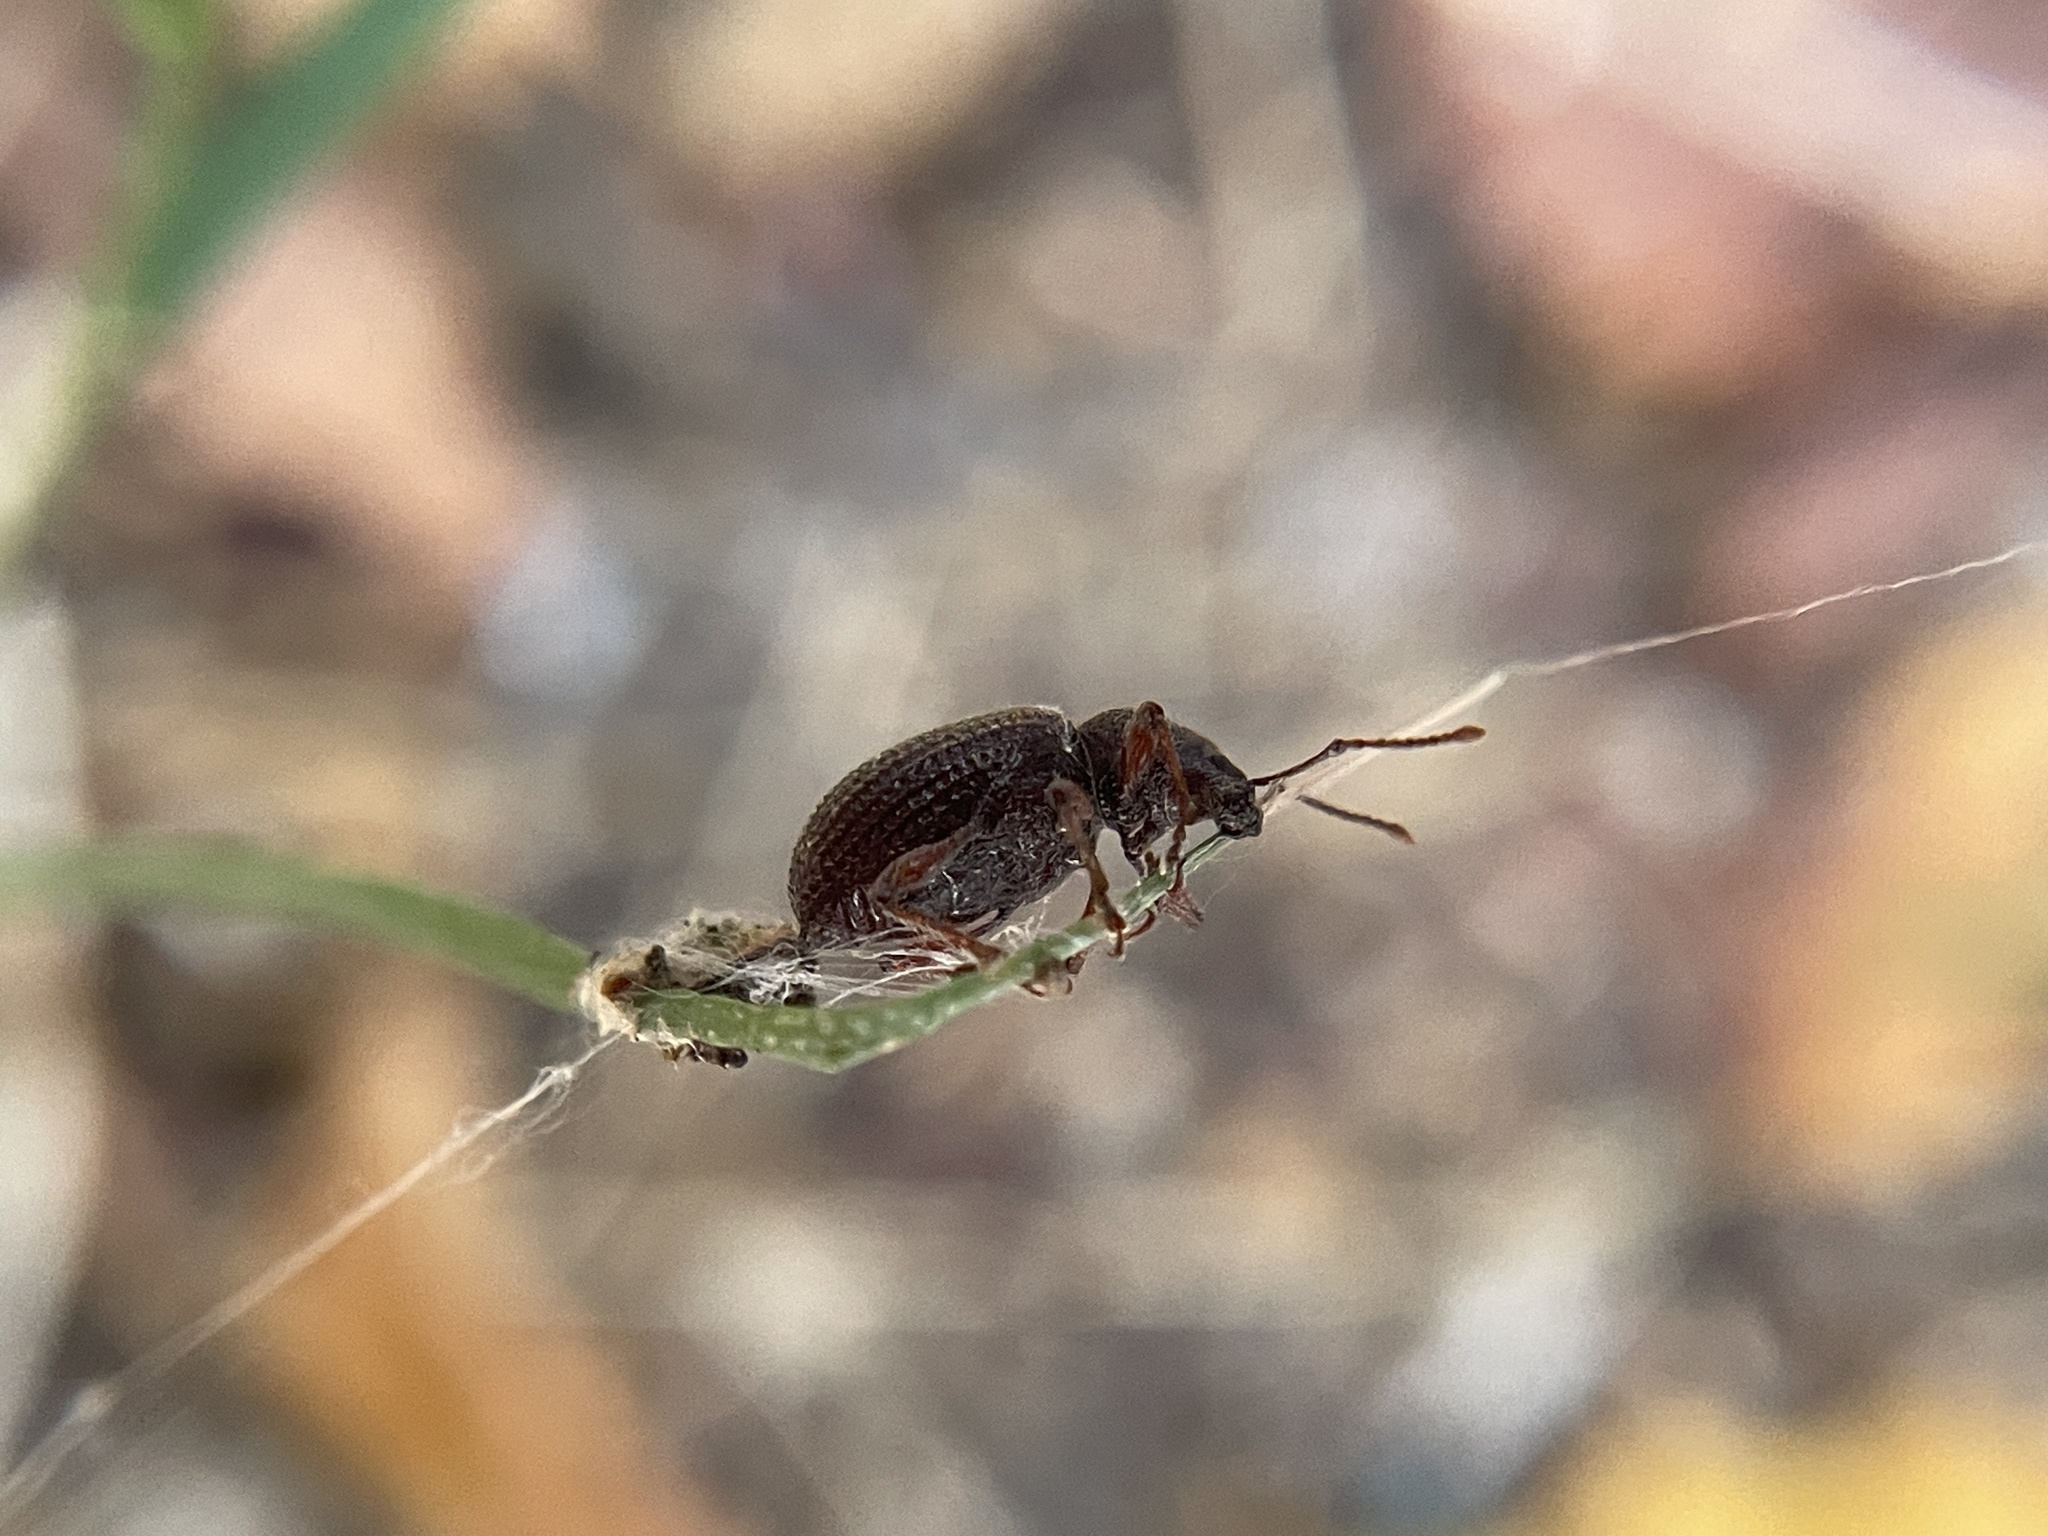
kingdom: Animalia
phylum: Arthropoda
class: Insecta
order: Coleoptera
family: Curculionidae
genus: Otiorhynchus
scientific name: Otiorhynchus cribricollis
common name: Weevil
